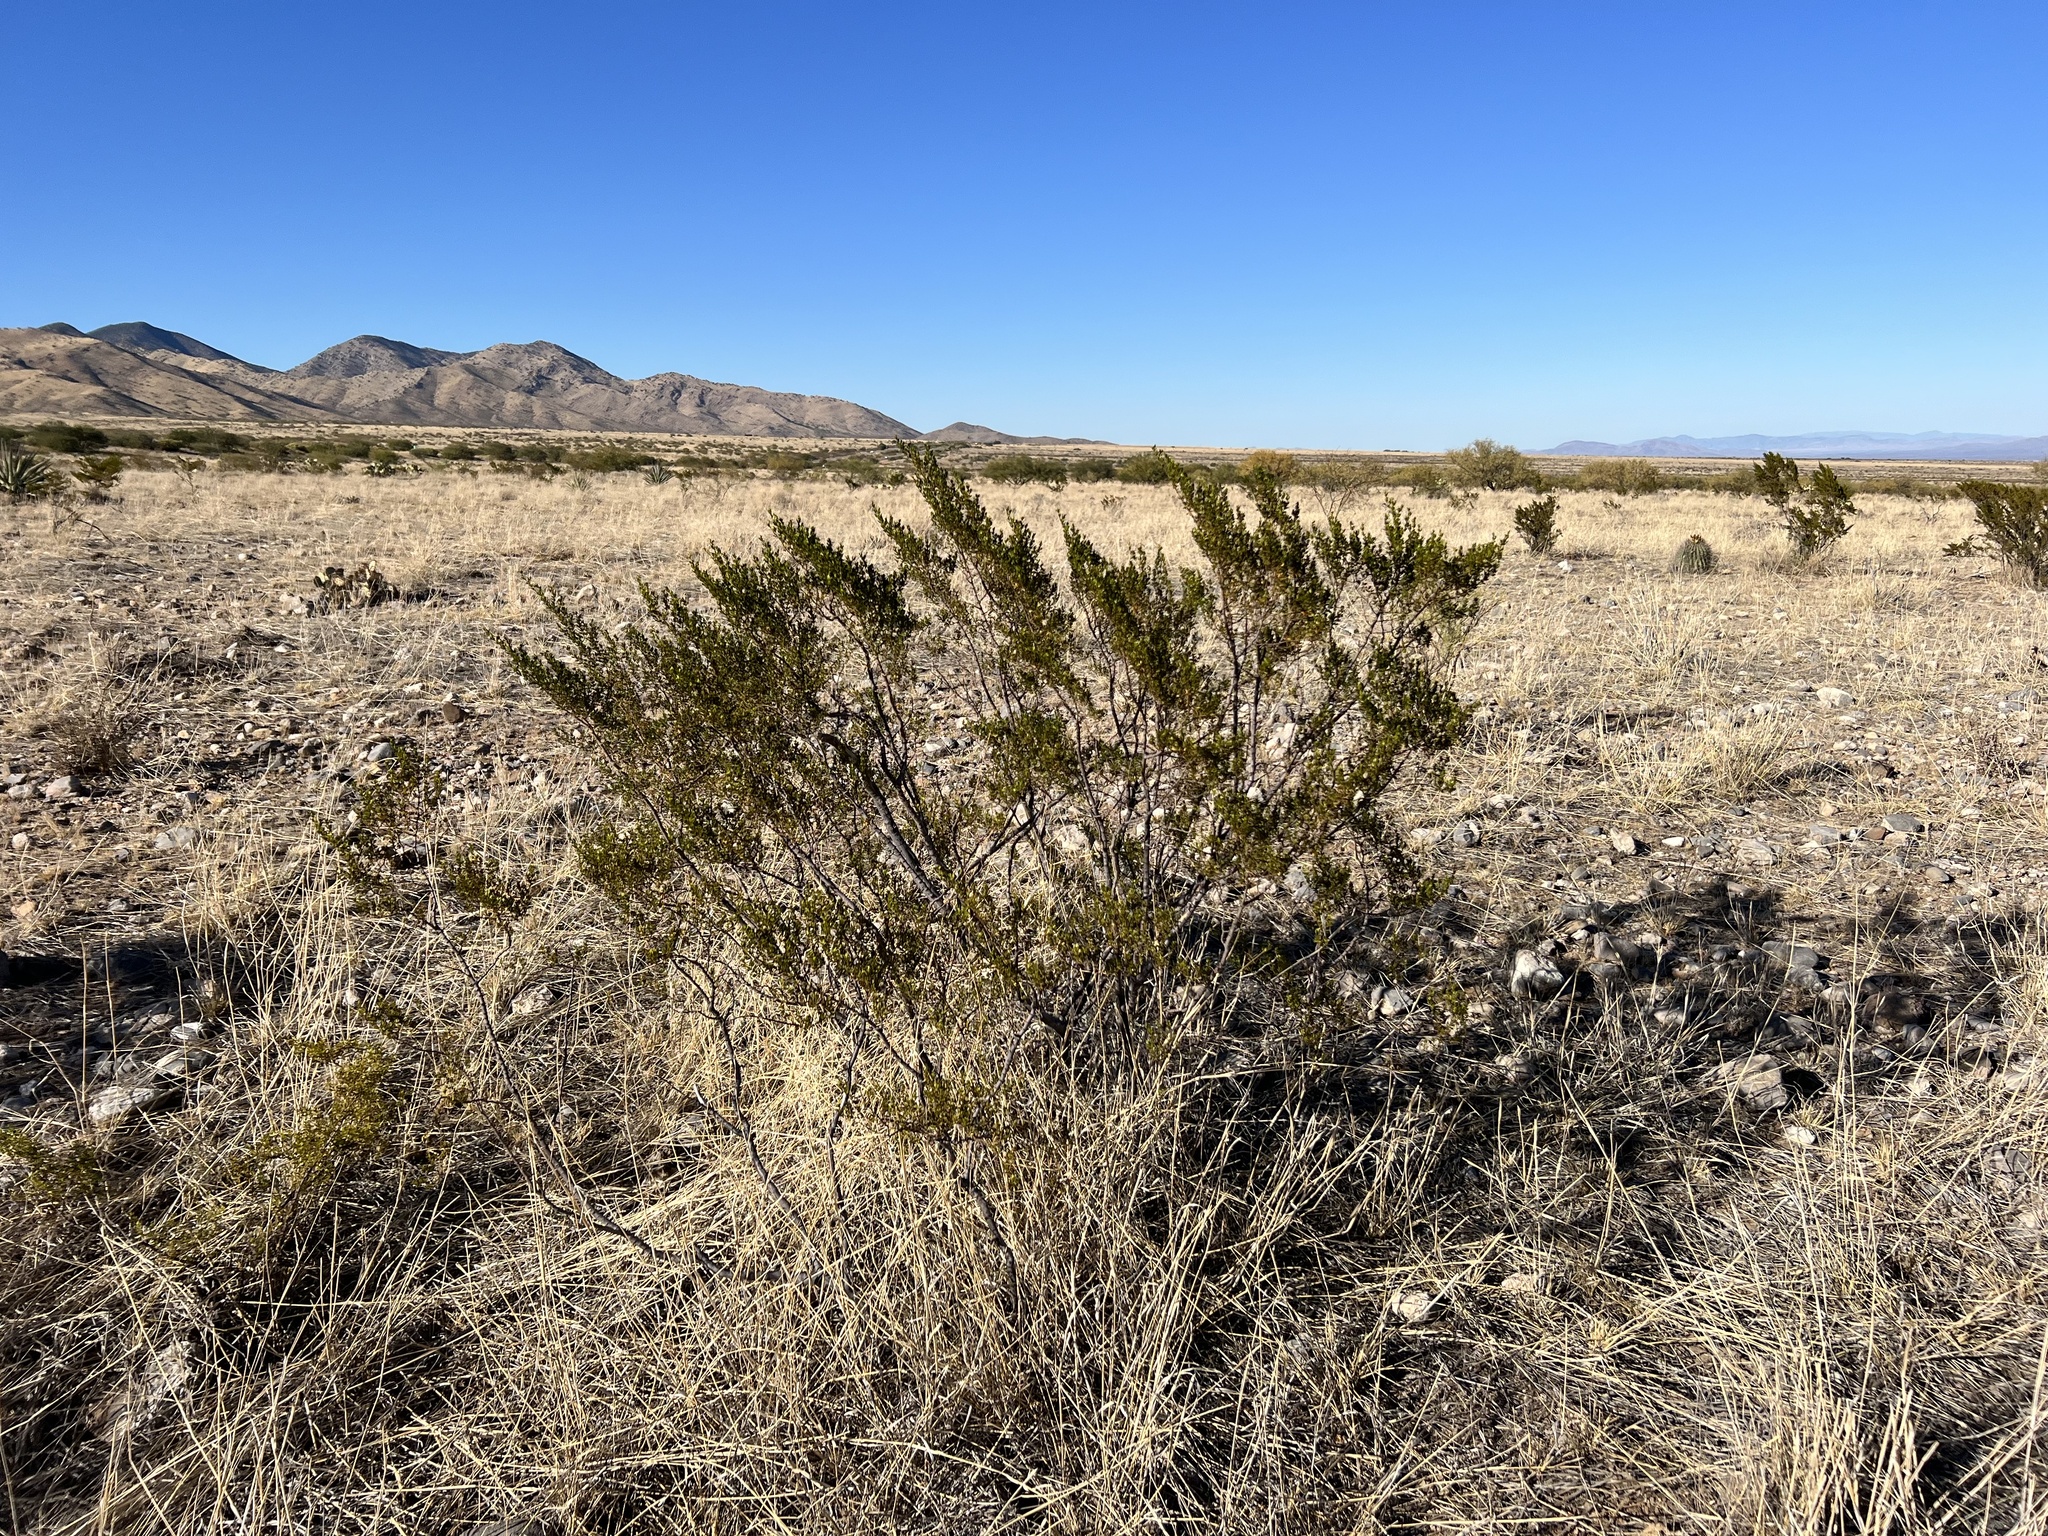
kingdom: Plantae
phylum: Tracheophyta
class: Magnoliopsida
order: Zygophyllales
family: Zygophyllaceae
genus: Larrea
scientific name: Larrea tridentata
